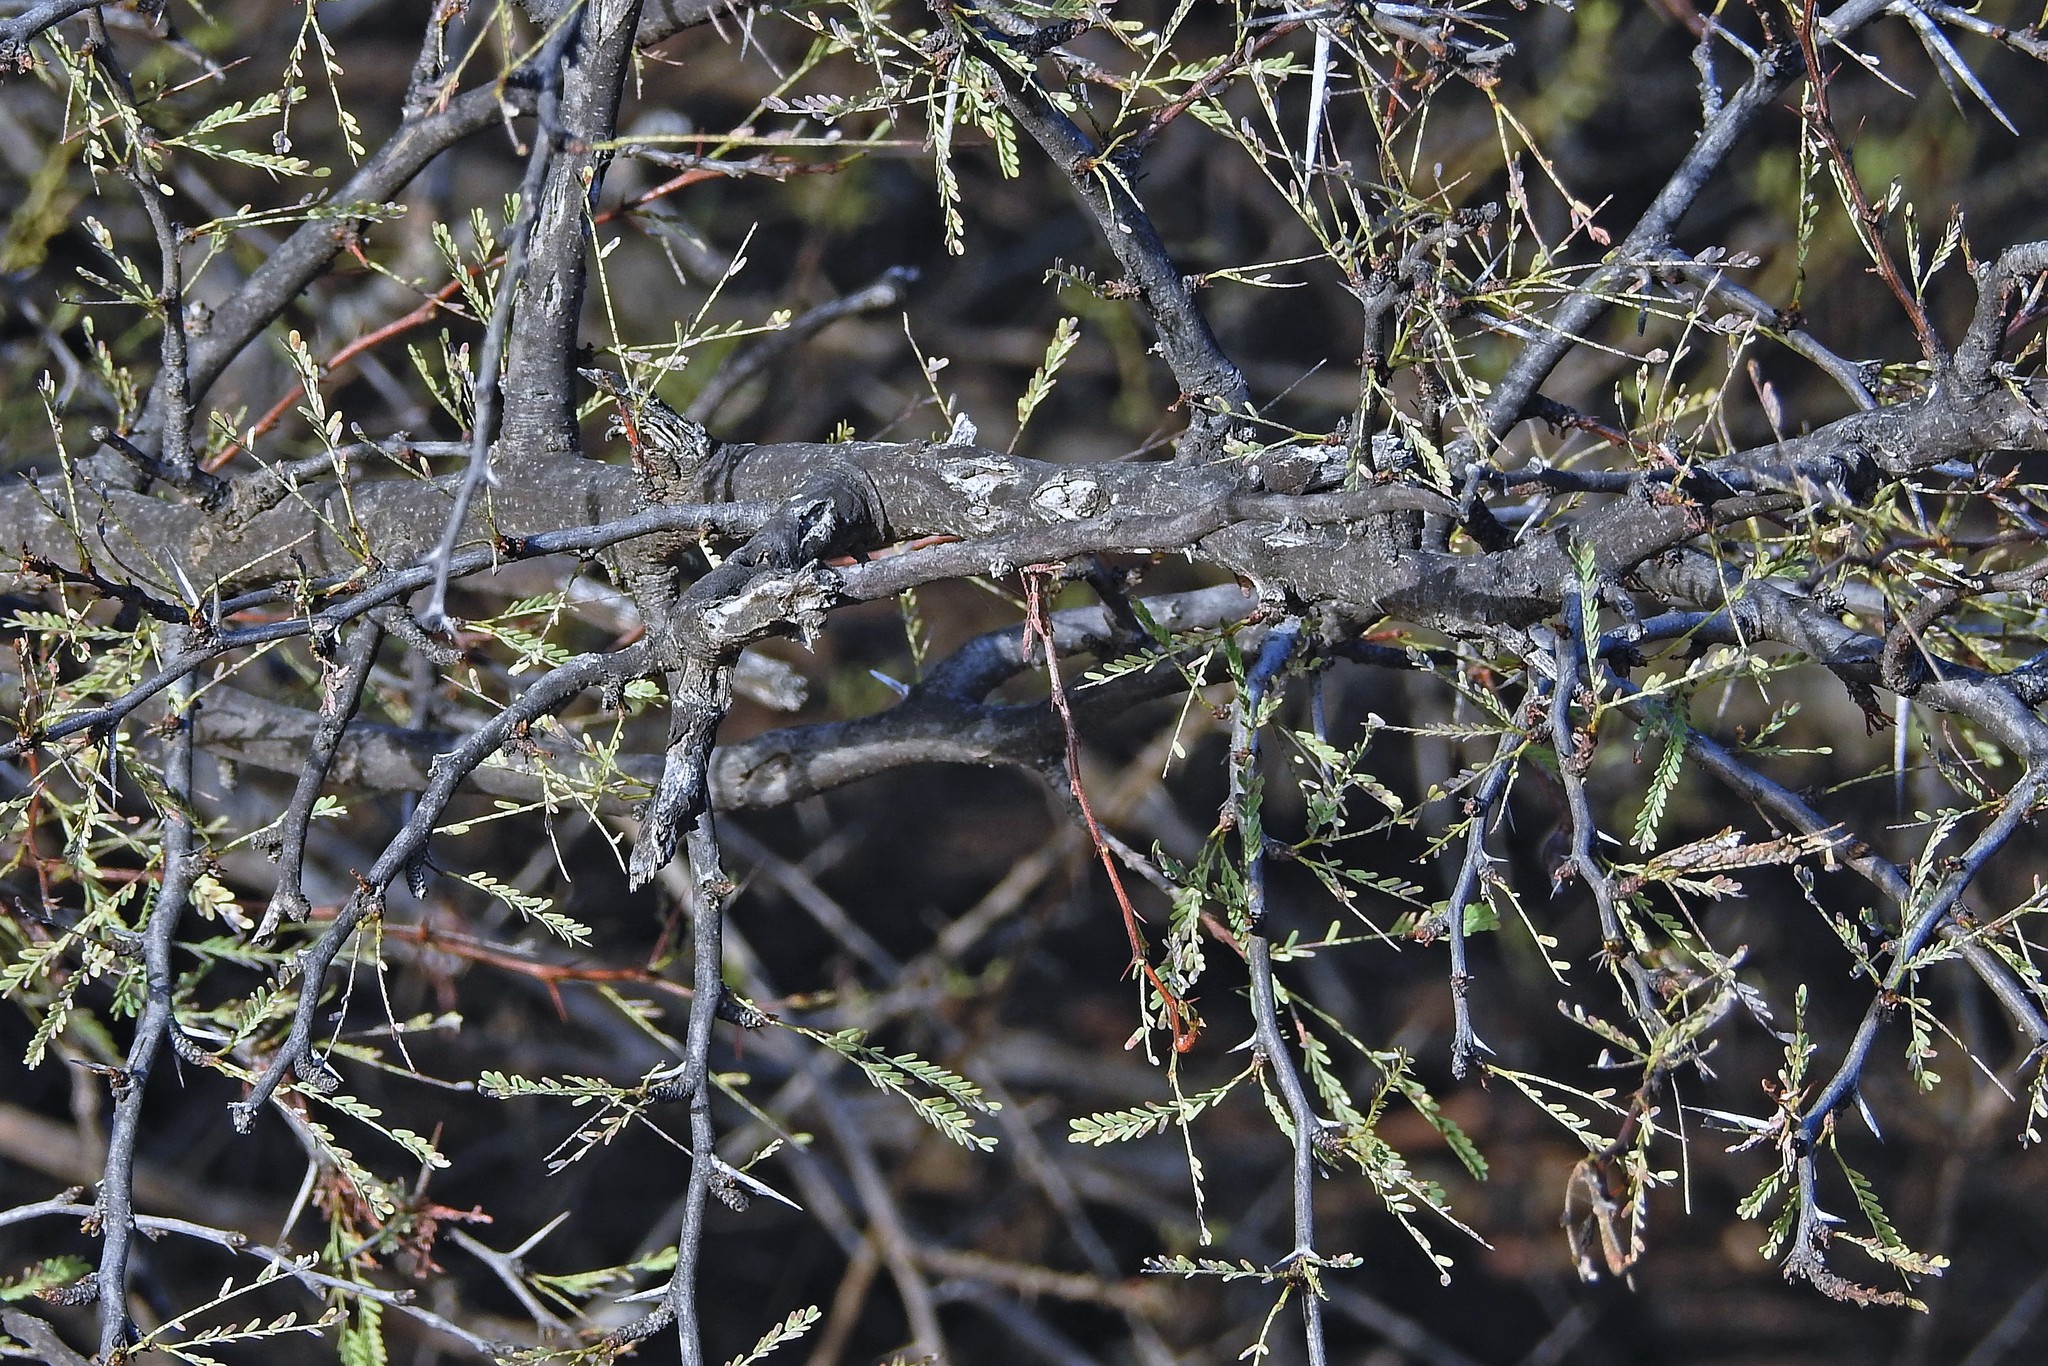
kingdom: Plantae
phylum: Tracheophyta
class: Magnoliopsida
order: Fabales
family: Fabaceae
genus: Prosopis
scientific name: Prosopis torquata
